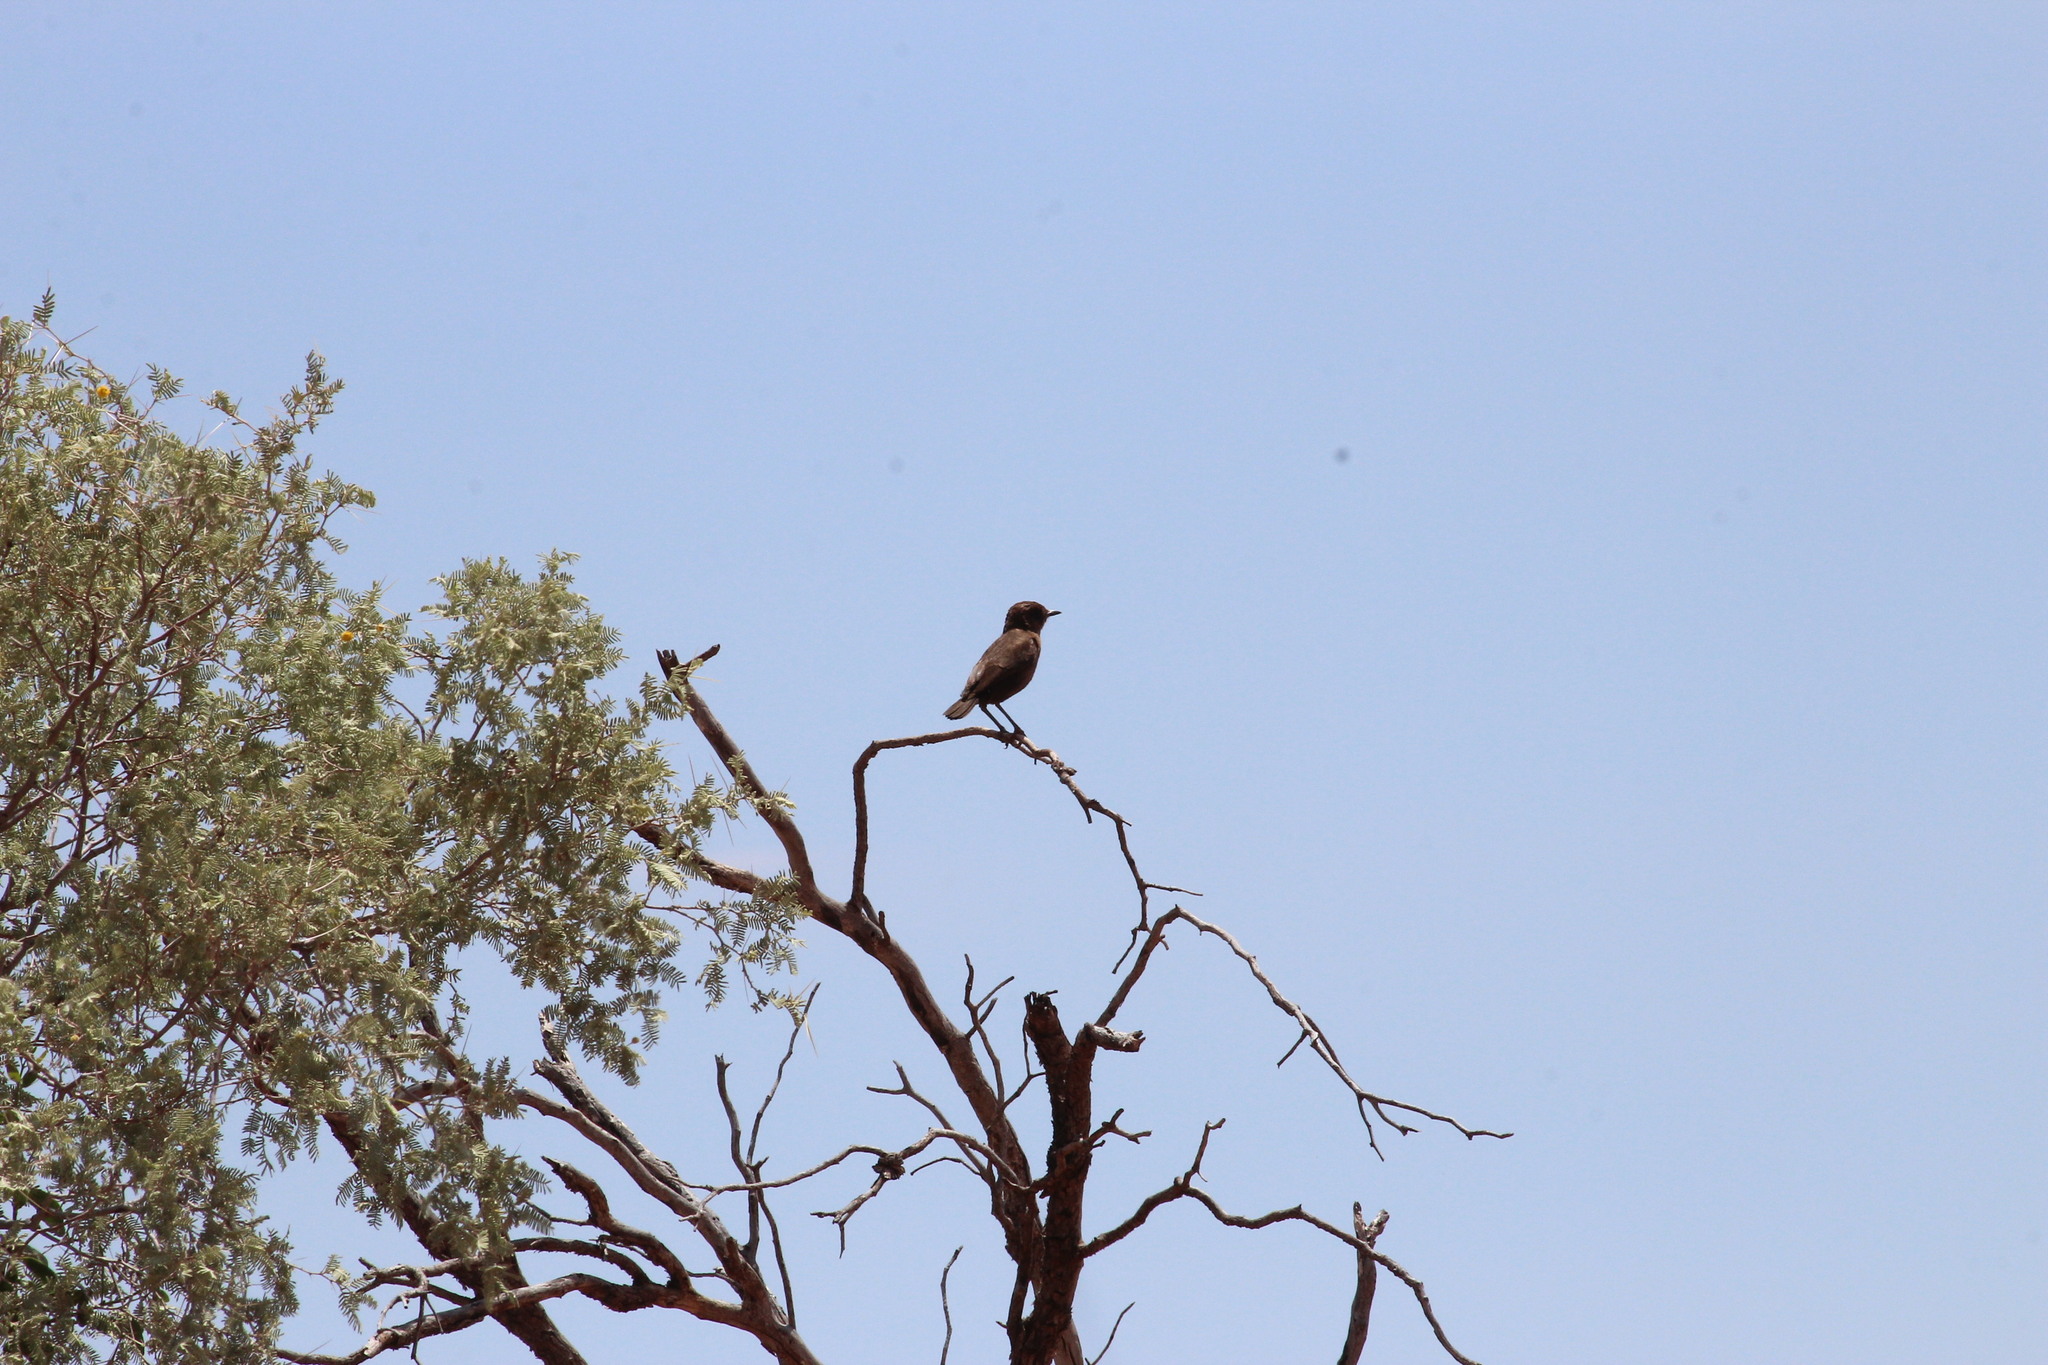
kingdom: Animalia
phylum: Chordata
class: Aves
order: Passeriformes
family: Muscicapidae
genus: Myrmecocichla
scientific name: Myrmecocichla formicivora
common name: Ant-eating chat
